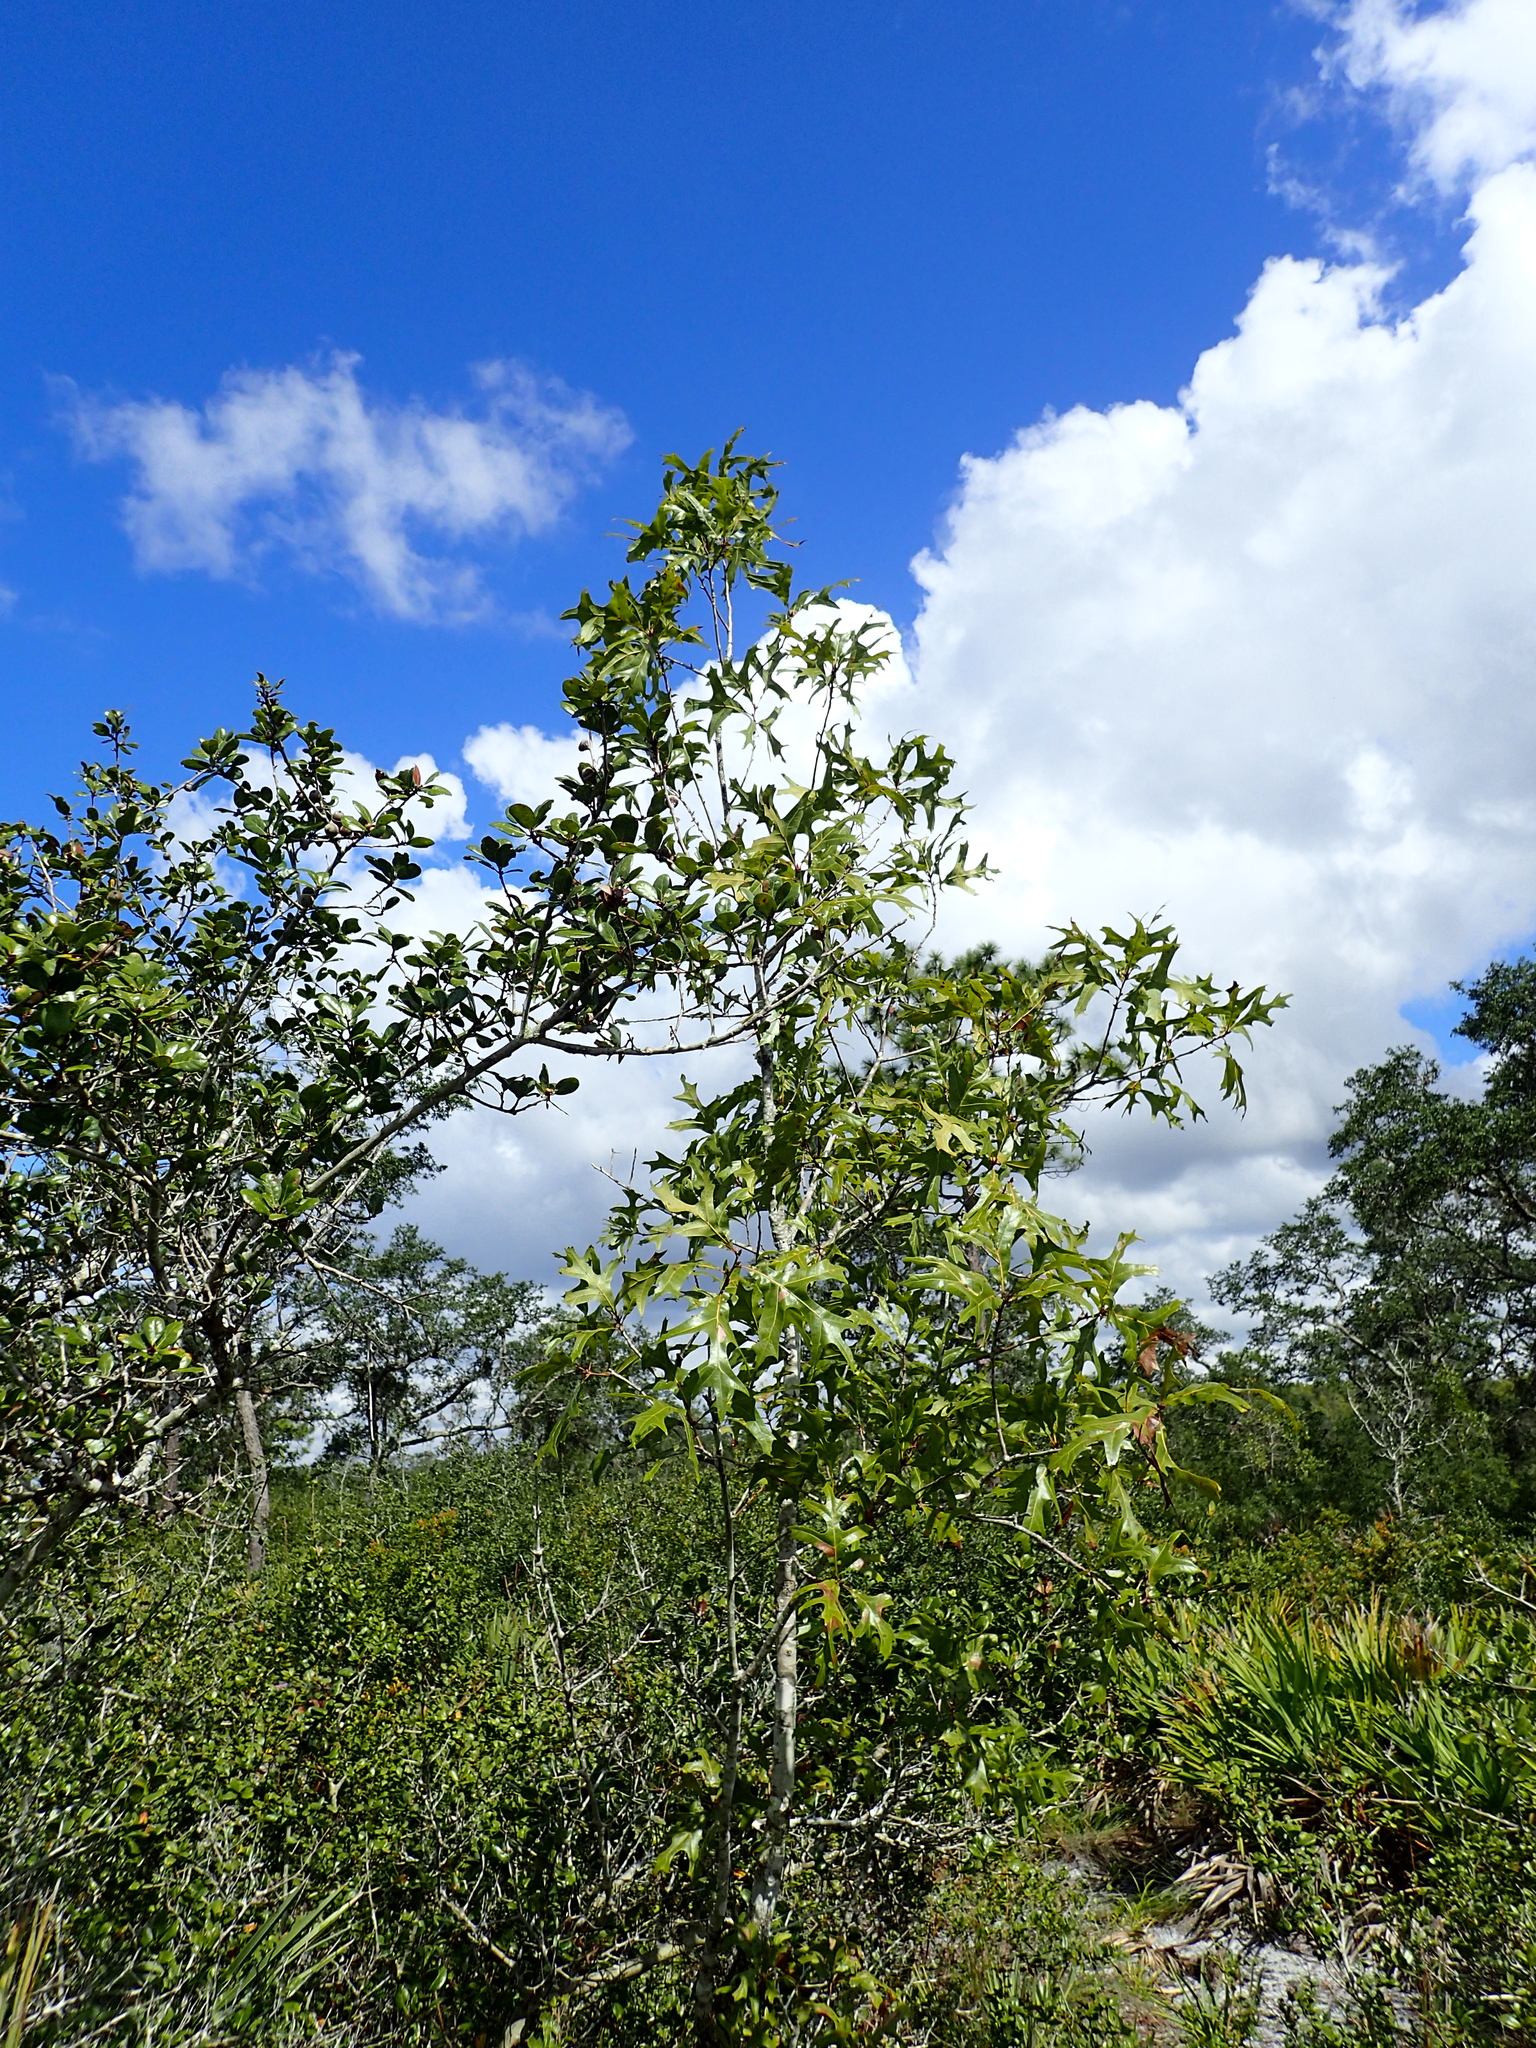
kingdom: Plantae
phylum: Tracheophyta
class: Magnoliopsida
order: Fagales
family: Fagaceae
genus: Quercus
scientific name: Quercus laevis
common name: Turkey oak
